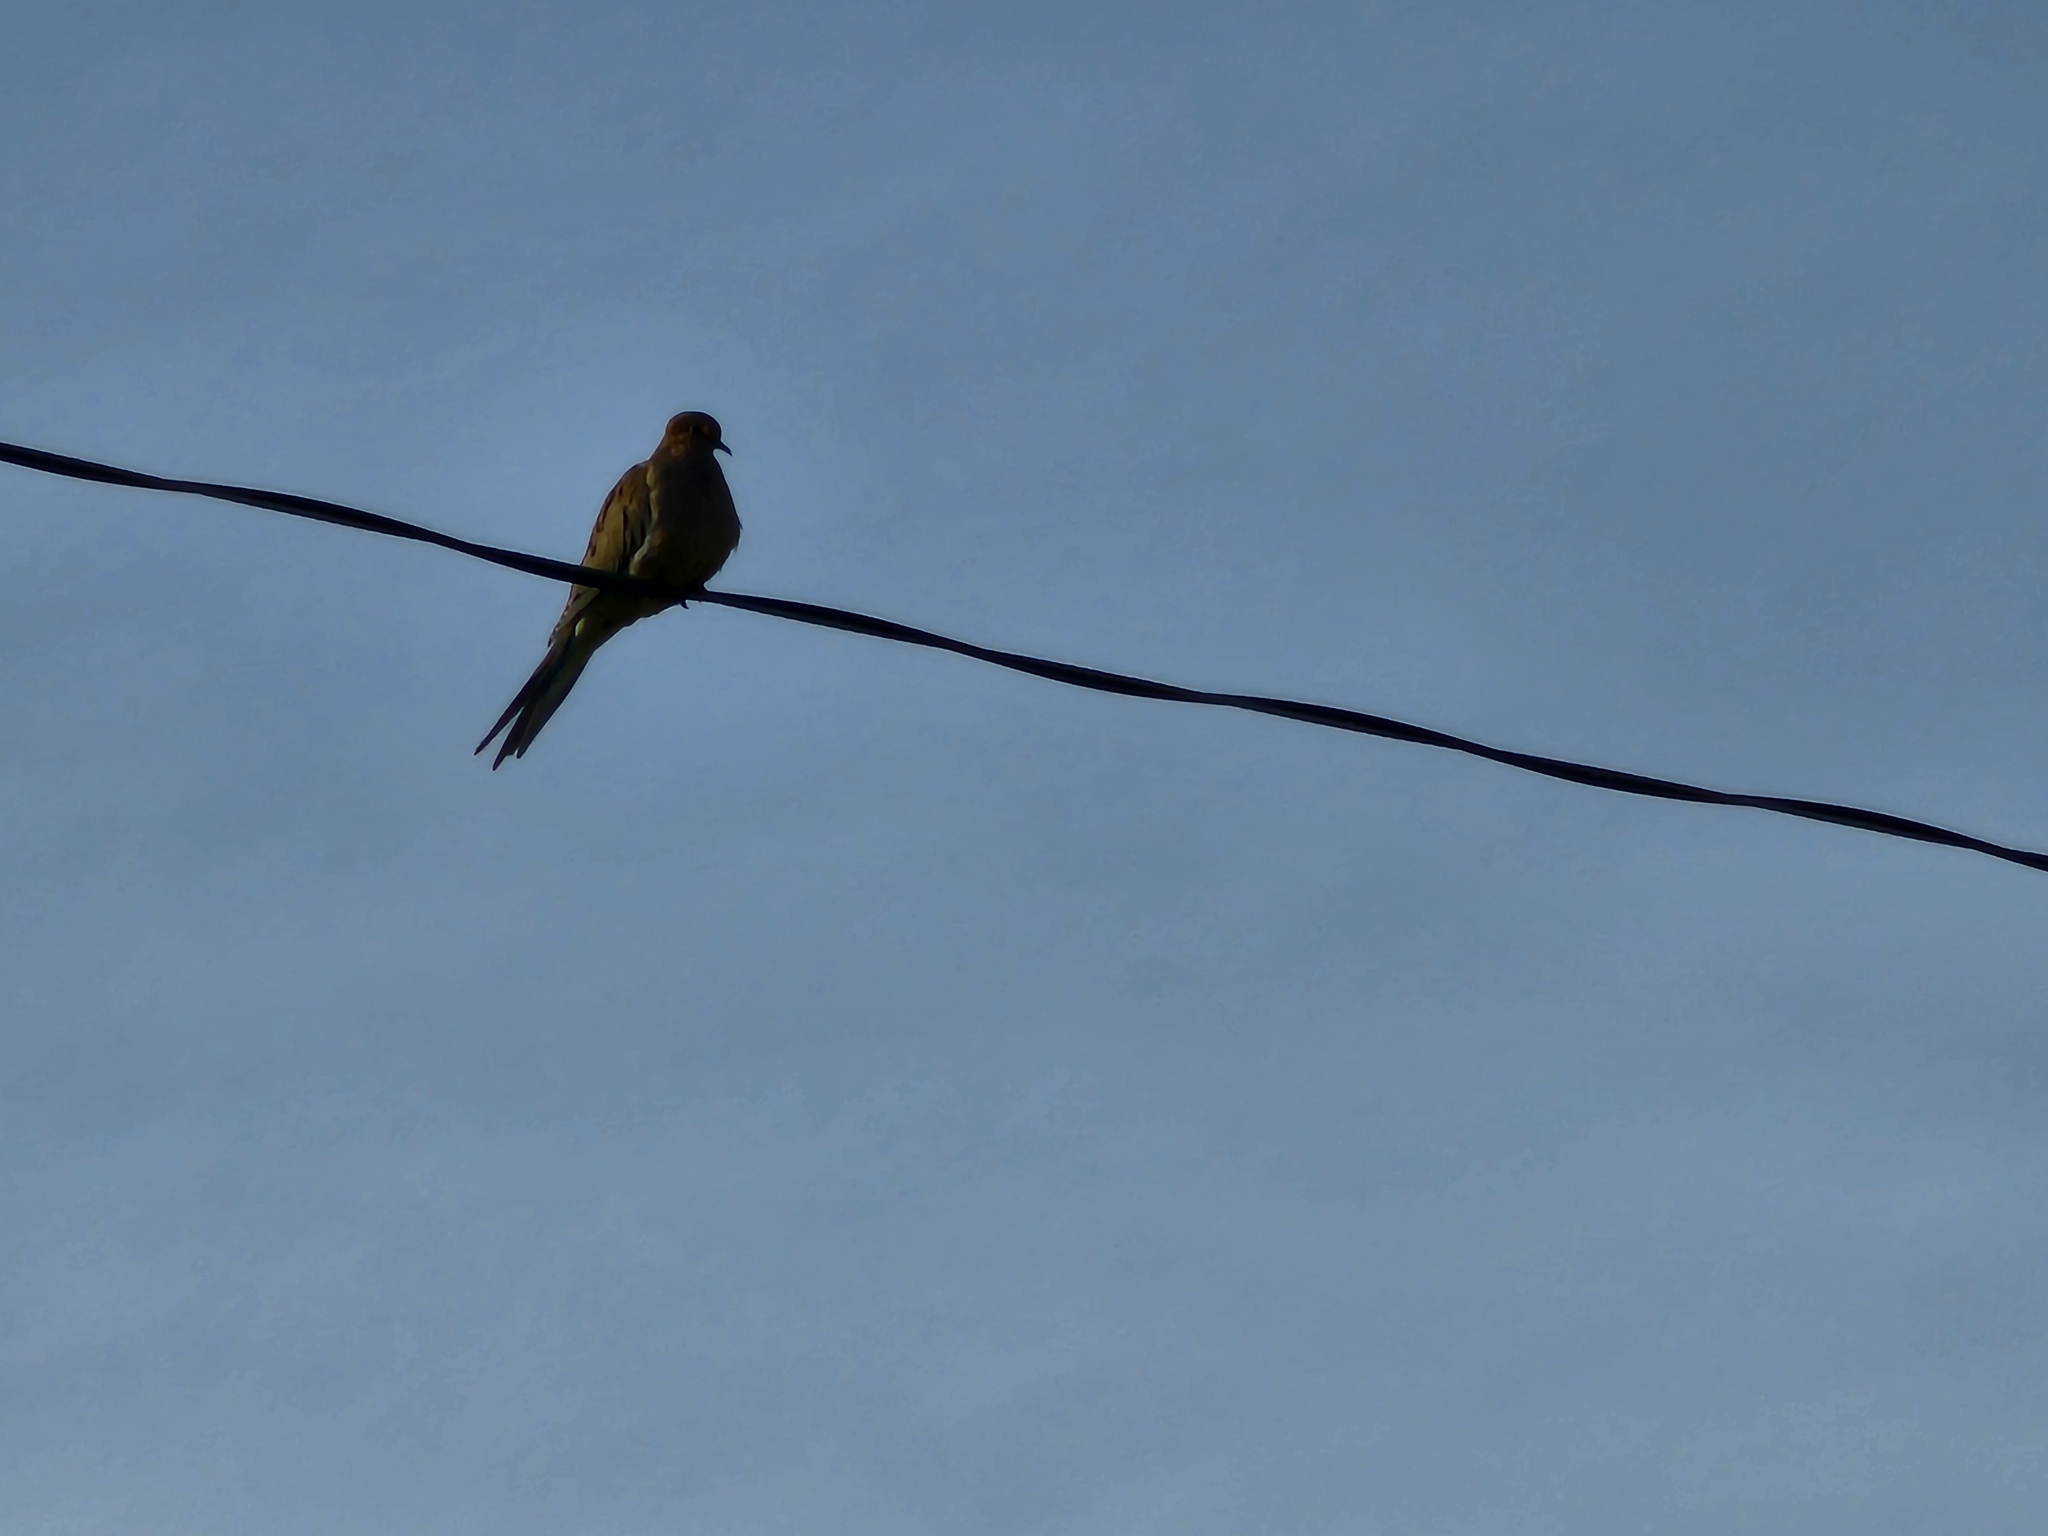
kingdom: Animalia
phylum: Chordata
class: Aves
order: Columbiformes
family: Columbidae
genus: Zenaida
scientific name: Zenaida macroura
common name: Mourning dove
